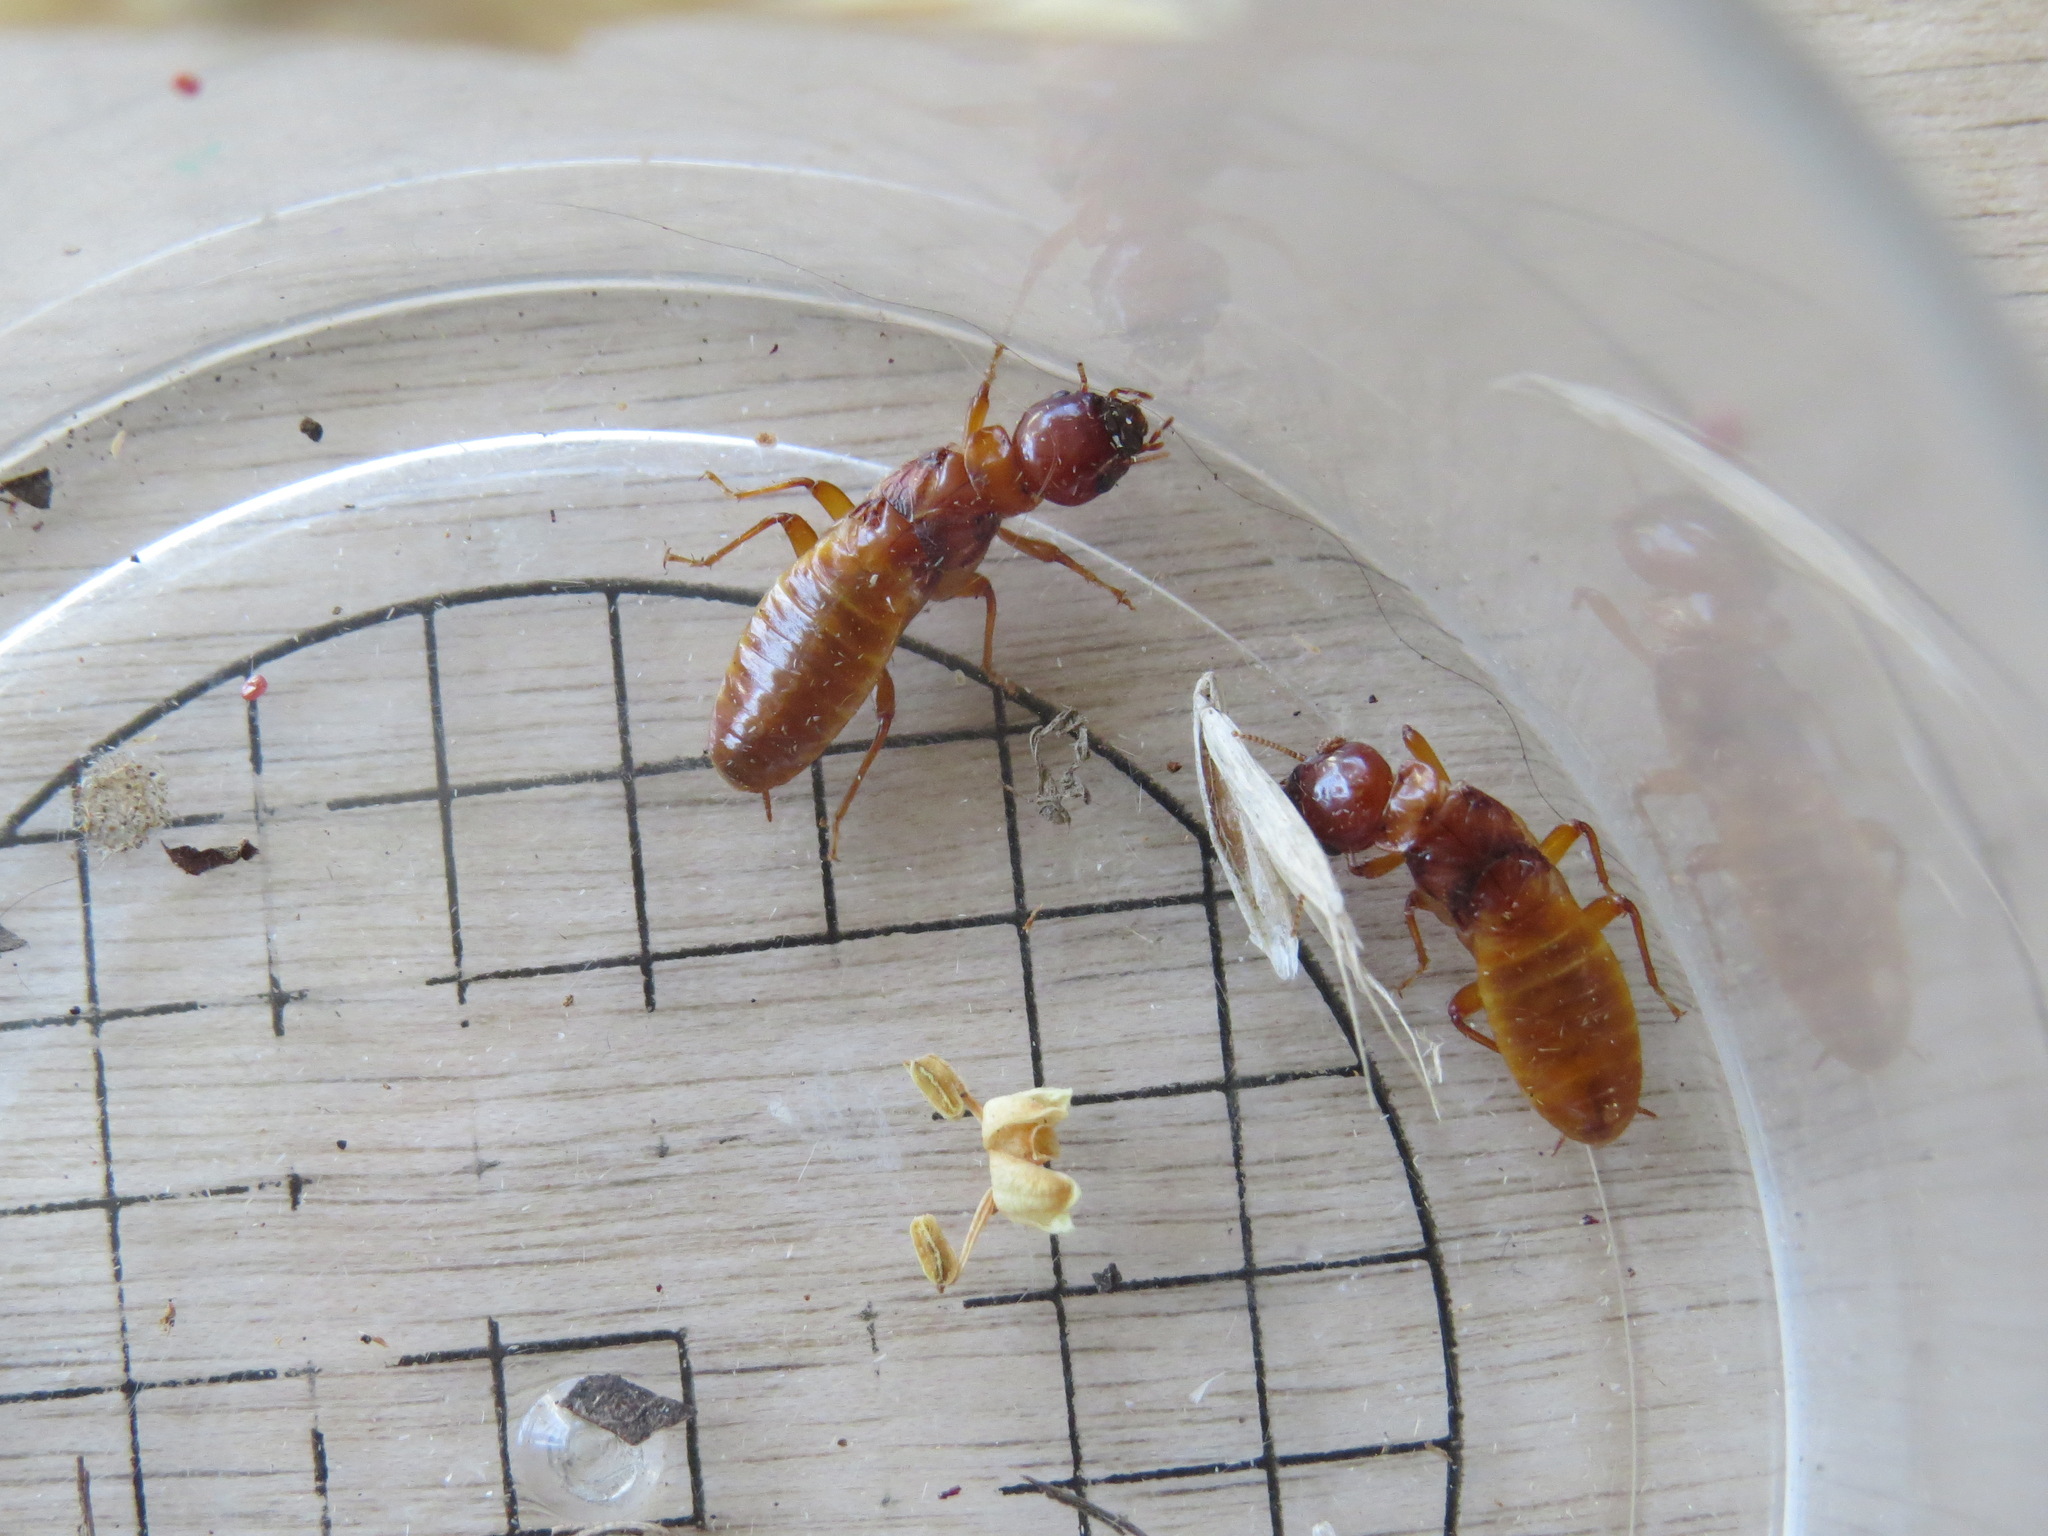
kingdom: Animalia
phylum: Arthropoda
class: Insecta
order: Blattodea
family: Archotermopsidae
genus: Zootermopsis
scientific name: Zootermopsis angusticollis
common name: Rottenwood termite
